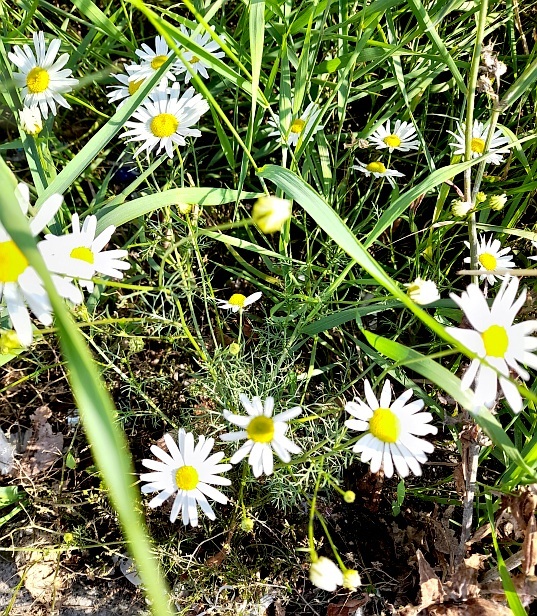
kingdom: Plantae
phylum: Tracheophyta
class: Magnoliopsida
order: Asterales
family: Asteraceae
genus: Tripleurospermum
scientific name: Tripleurospermum inodorum
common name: Scentless mayweed
